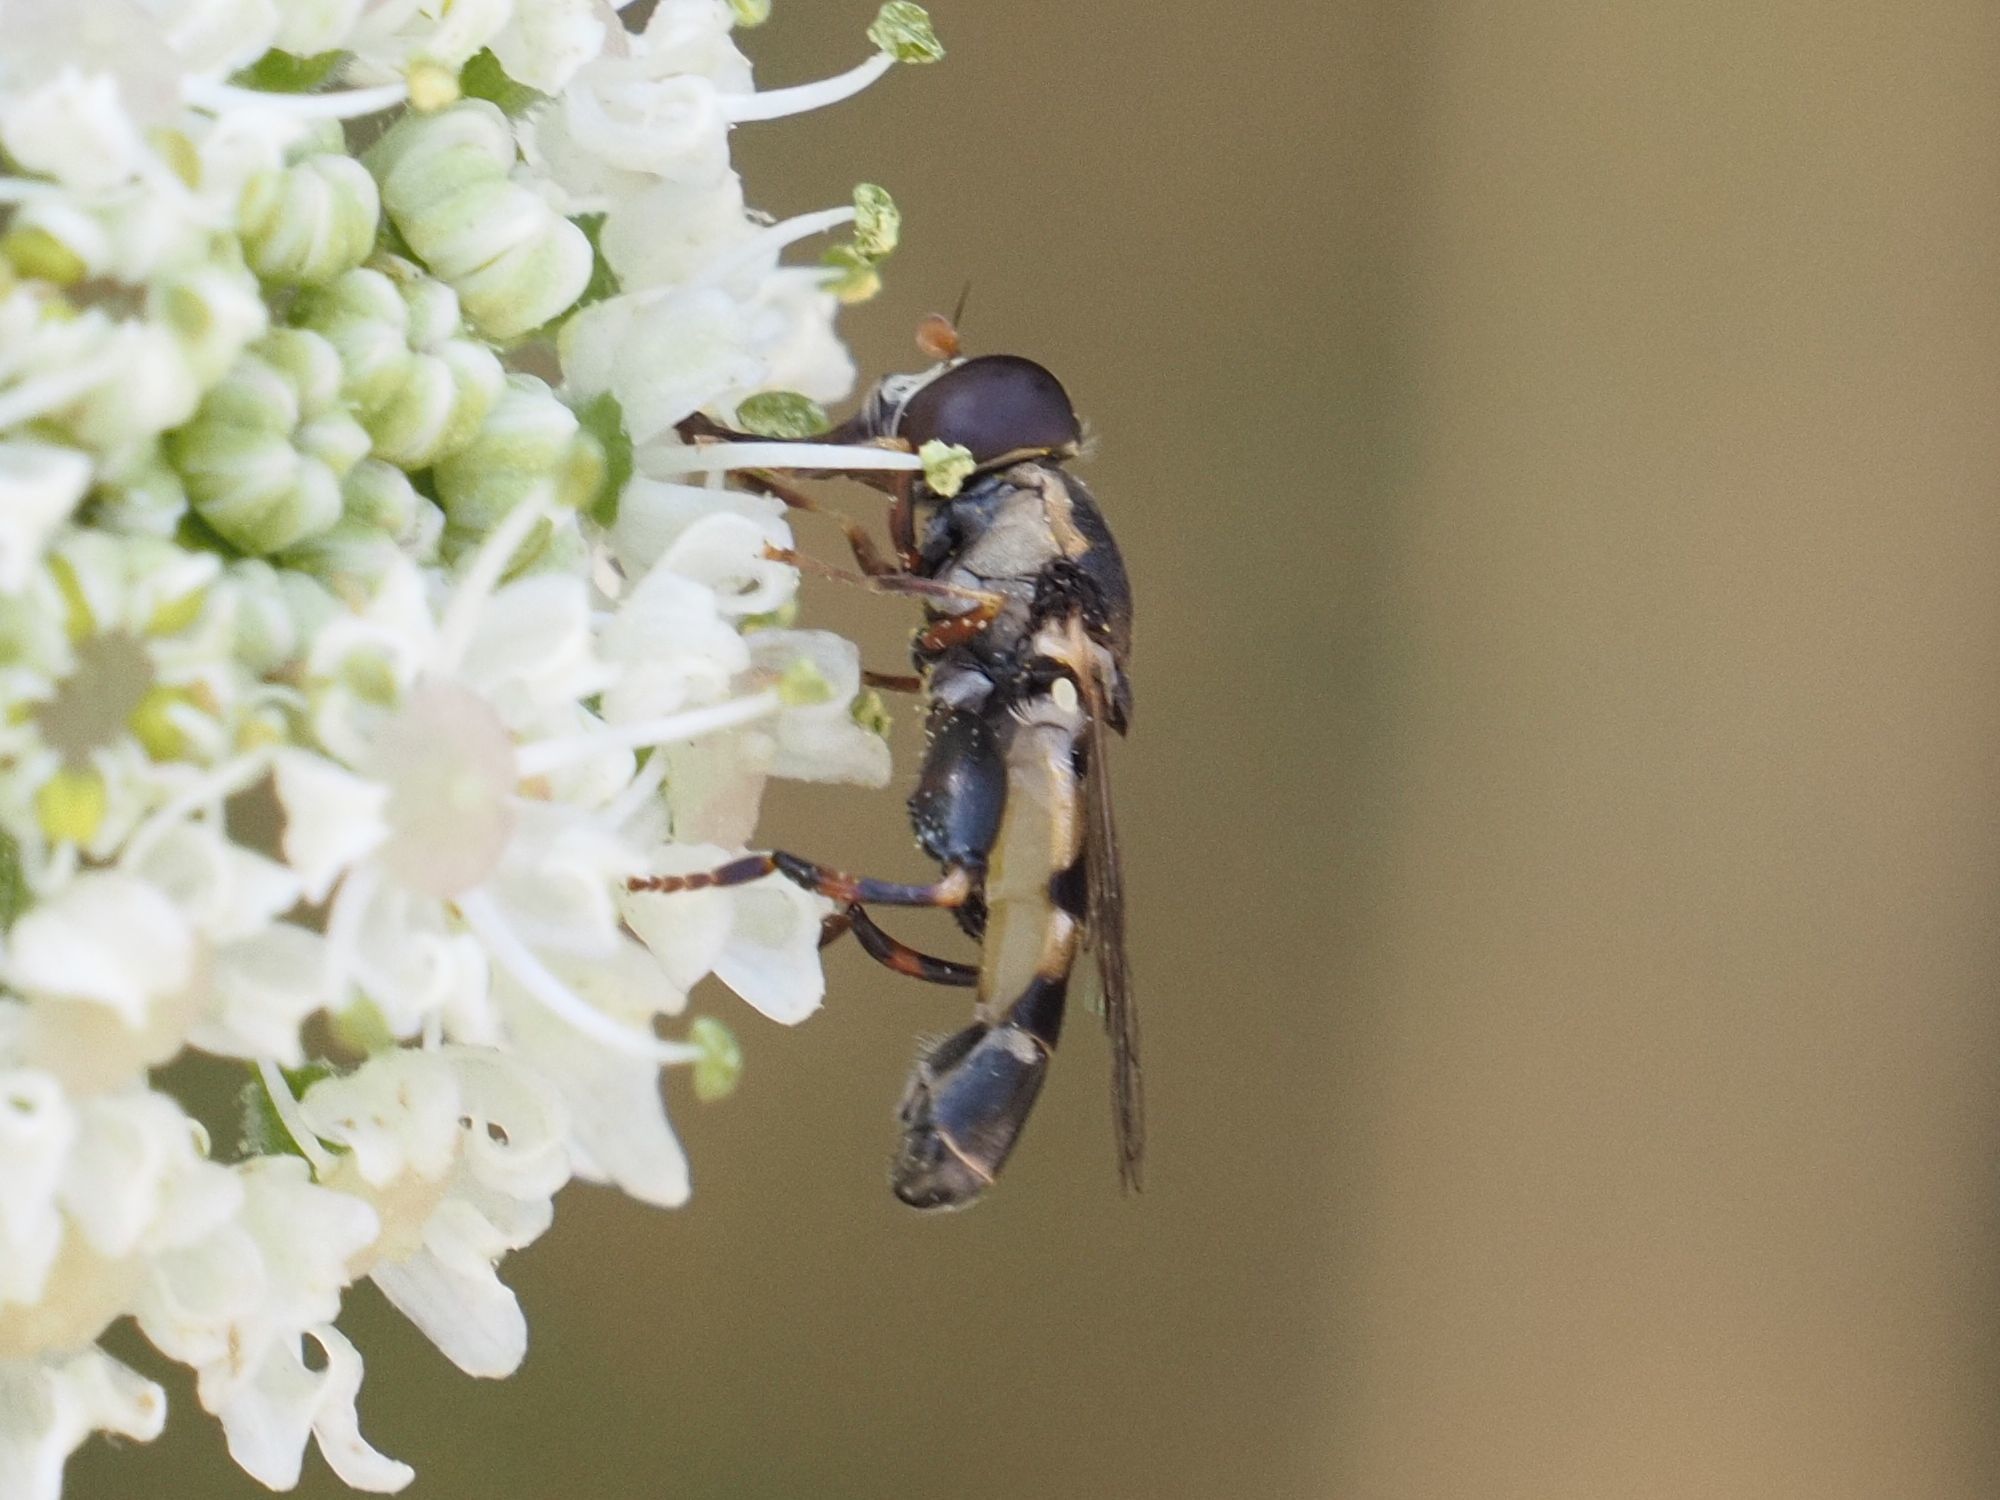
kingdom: Animalia
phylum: Arthropoda
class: Insecta
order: Diptera
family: Syrphidae
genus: Syritta
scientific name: Syritta pipiens
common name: Hover fly
